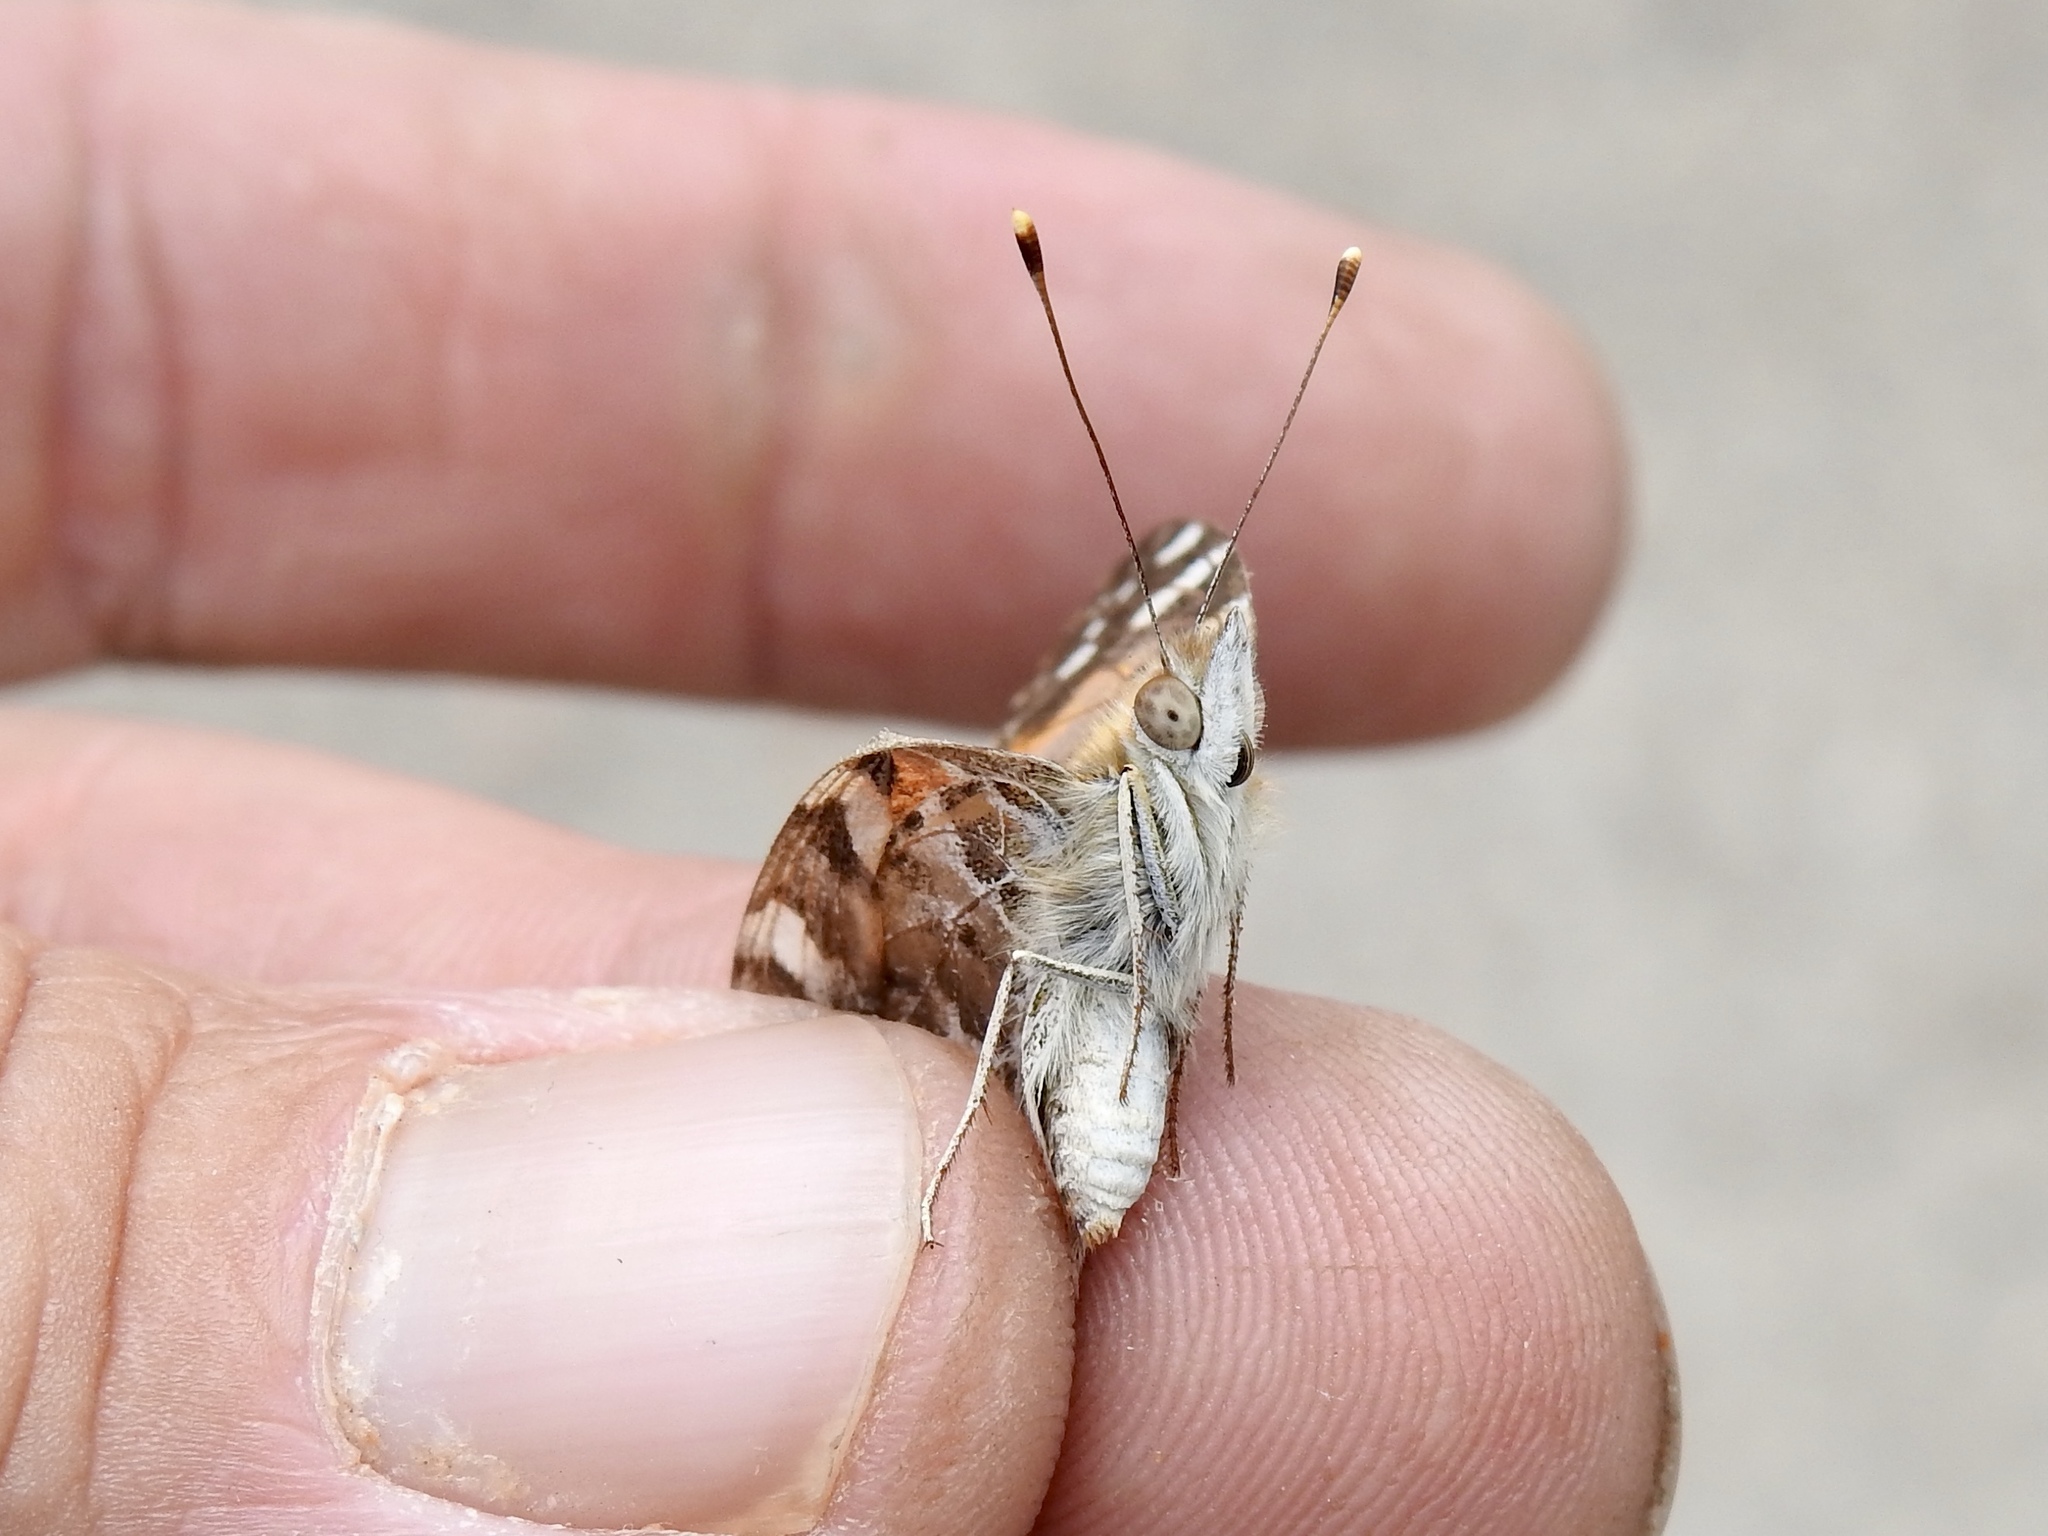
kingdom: Animalia
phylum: Arthropoda
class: Insecta
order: Lepidoptera
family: Nymphalidae
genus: Vanessa
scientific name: Vanessa cardui
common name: Painted lady
